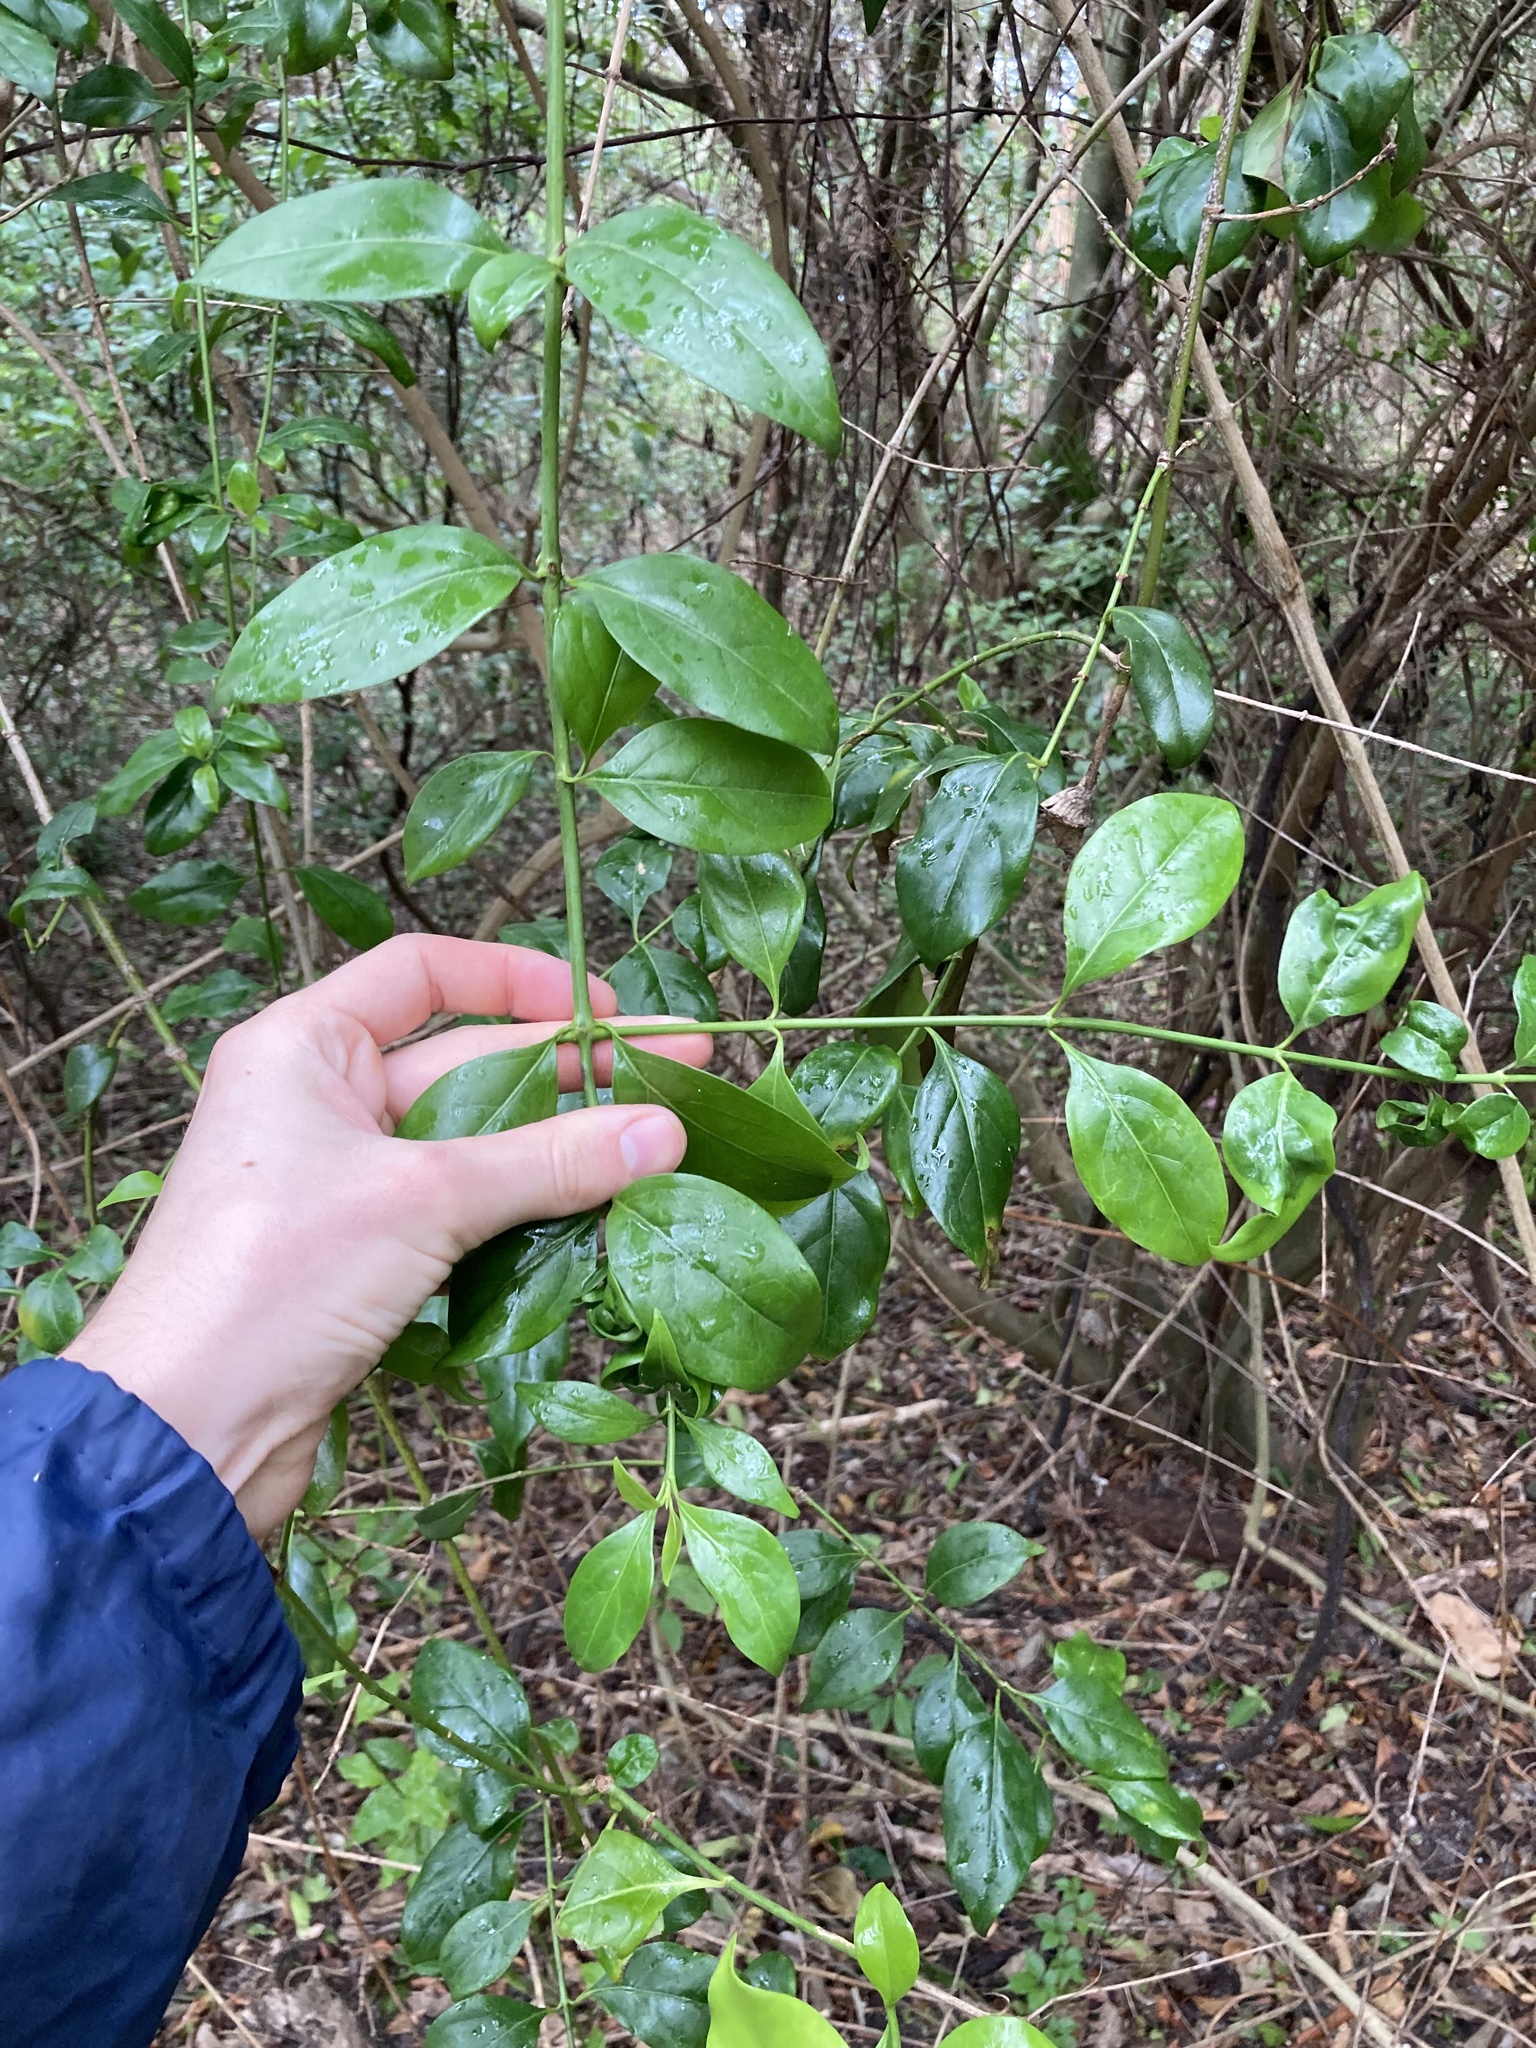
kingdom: Plantae
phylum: Tracheophyta
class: Magnoliopsida
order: Gentianales
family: Rubiaceae
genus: Chiococca
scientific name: Chiococca alba
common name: Snowberry
